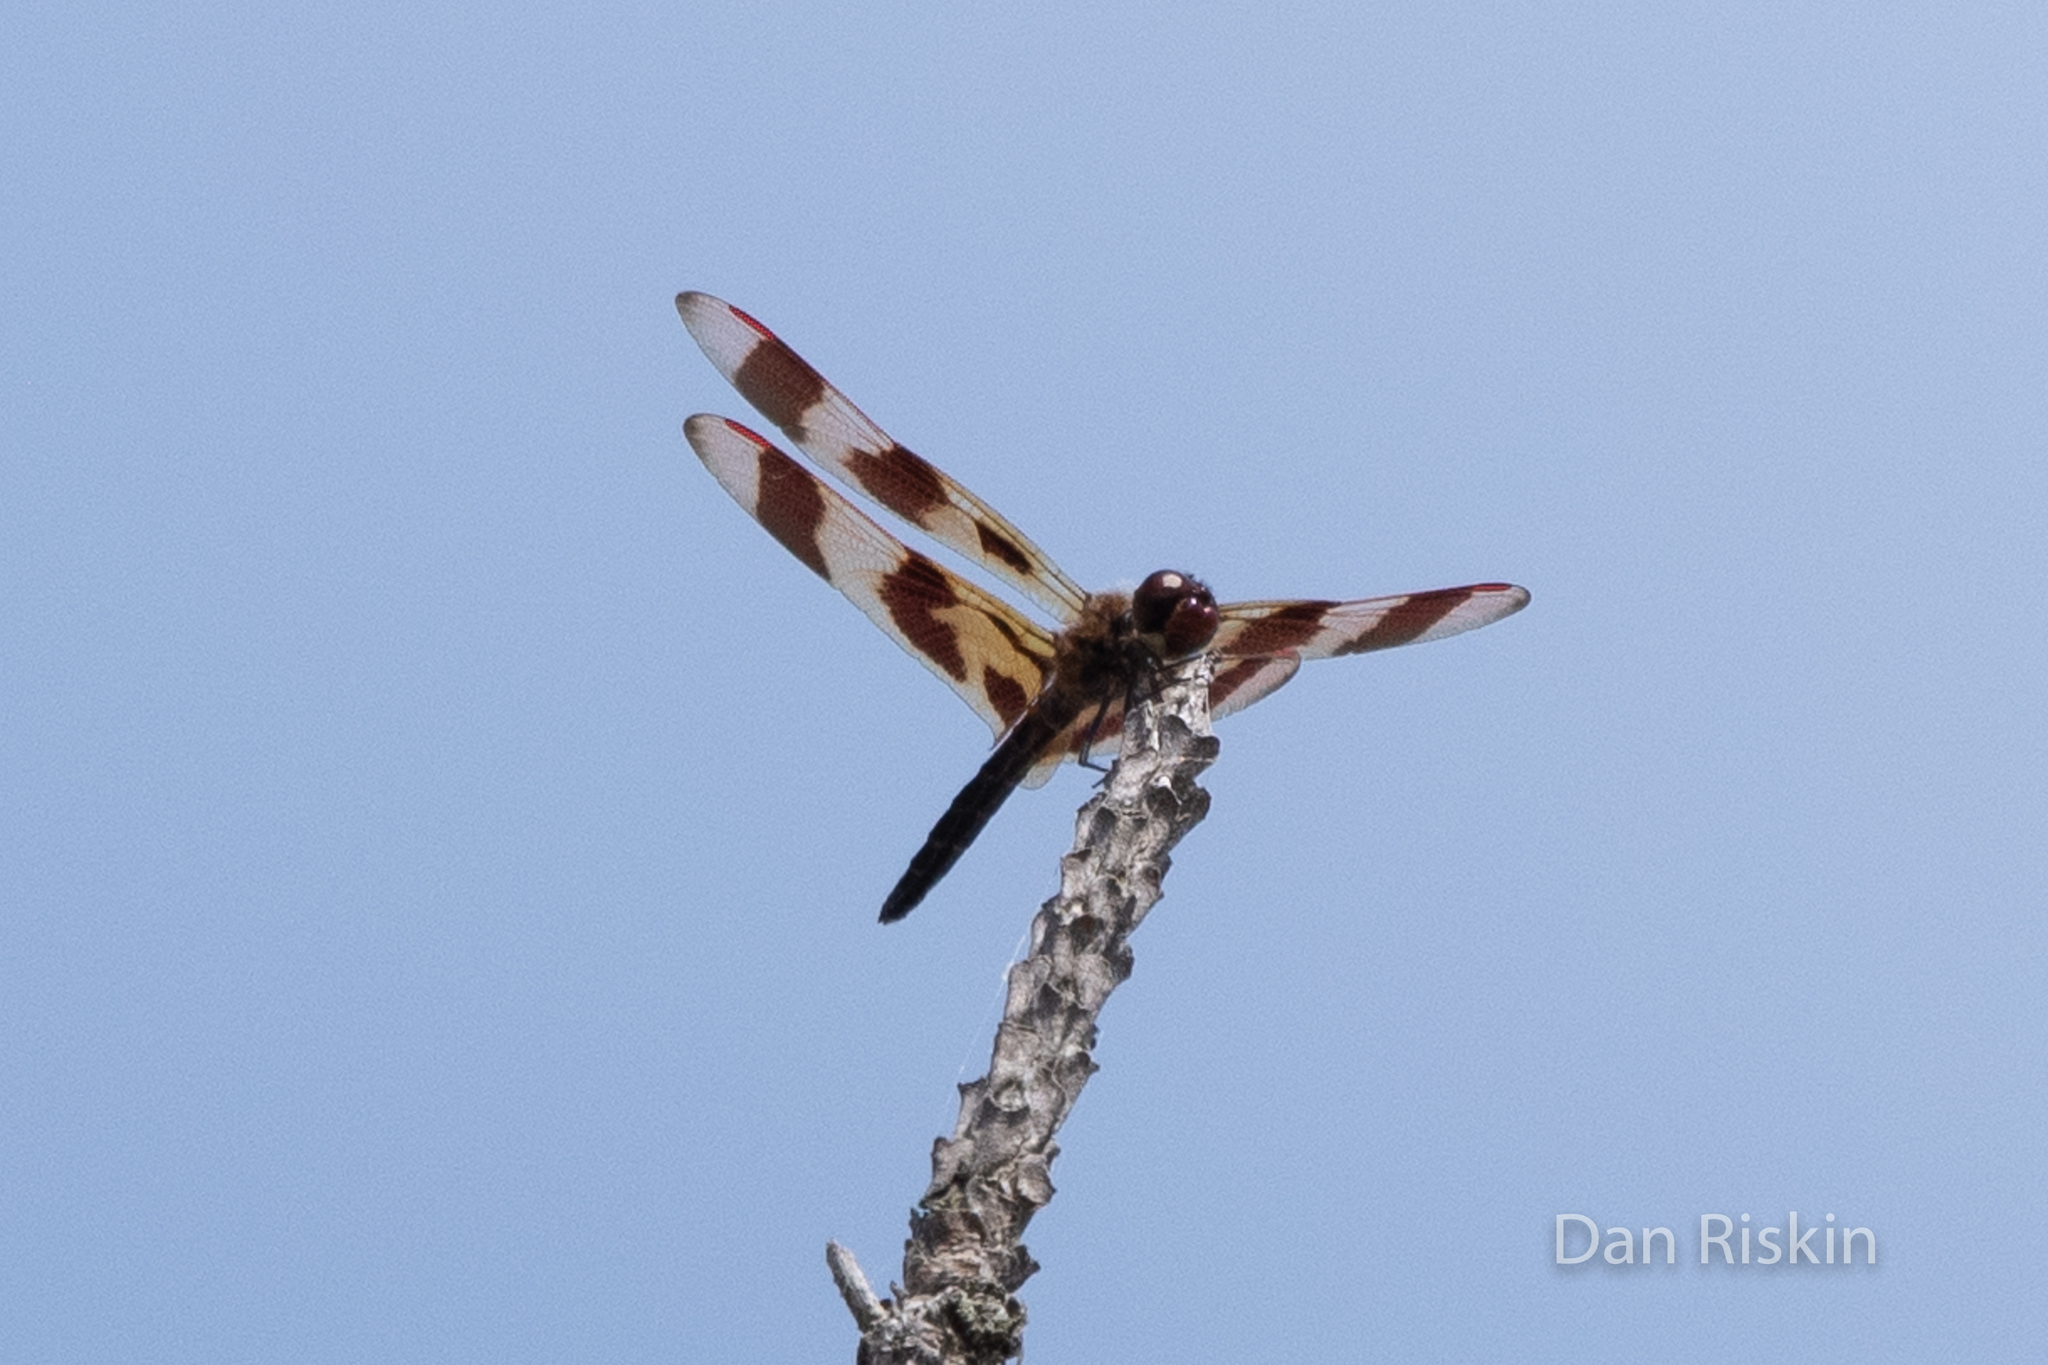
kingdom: Animalia
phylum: Arthropoda
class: Insecta
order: Odonata
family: Libellulidae
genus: Celithemis
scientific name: Celithemis eponina
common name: Halloween pennant
